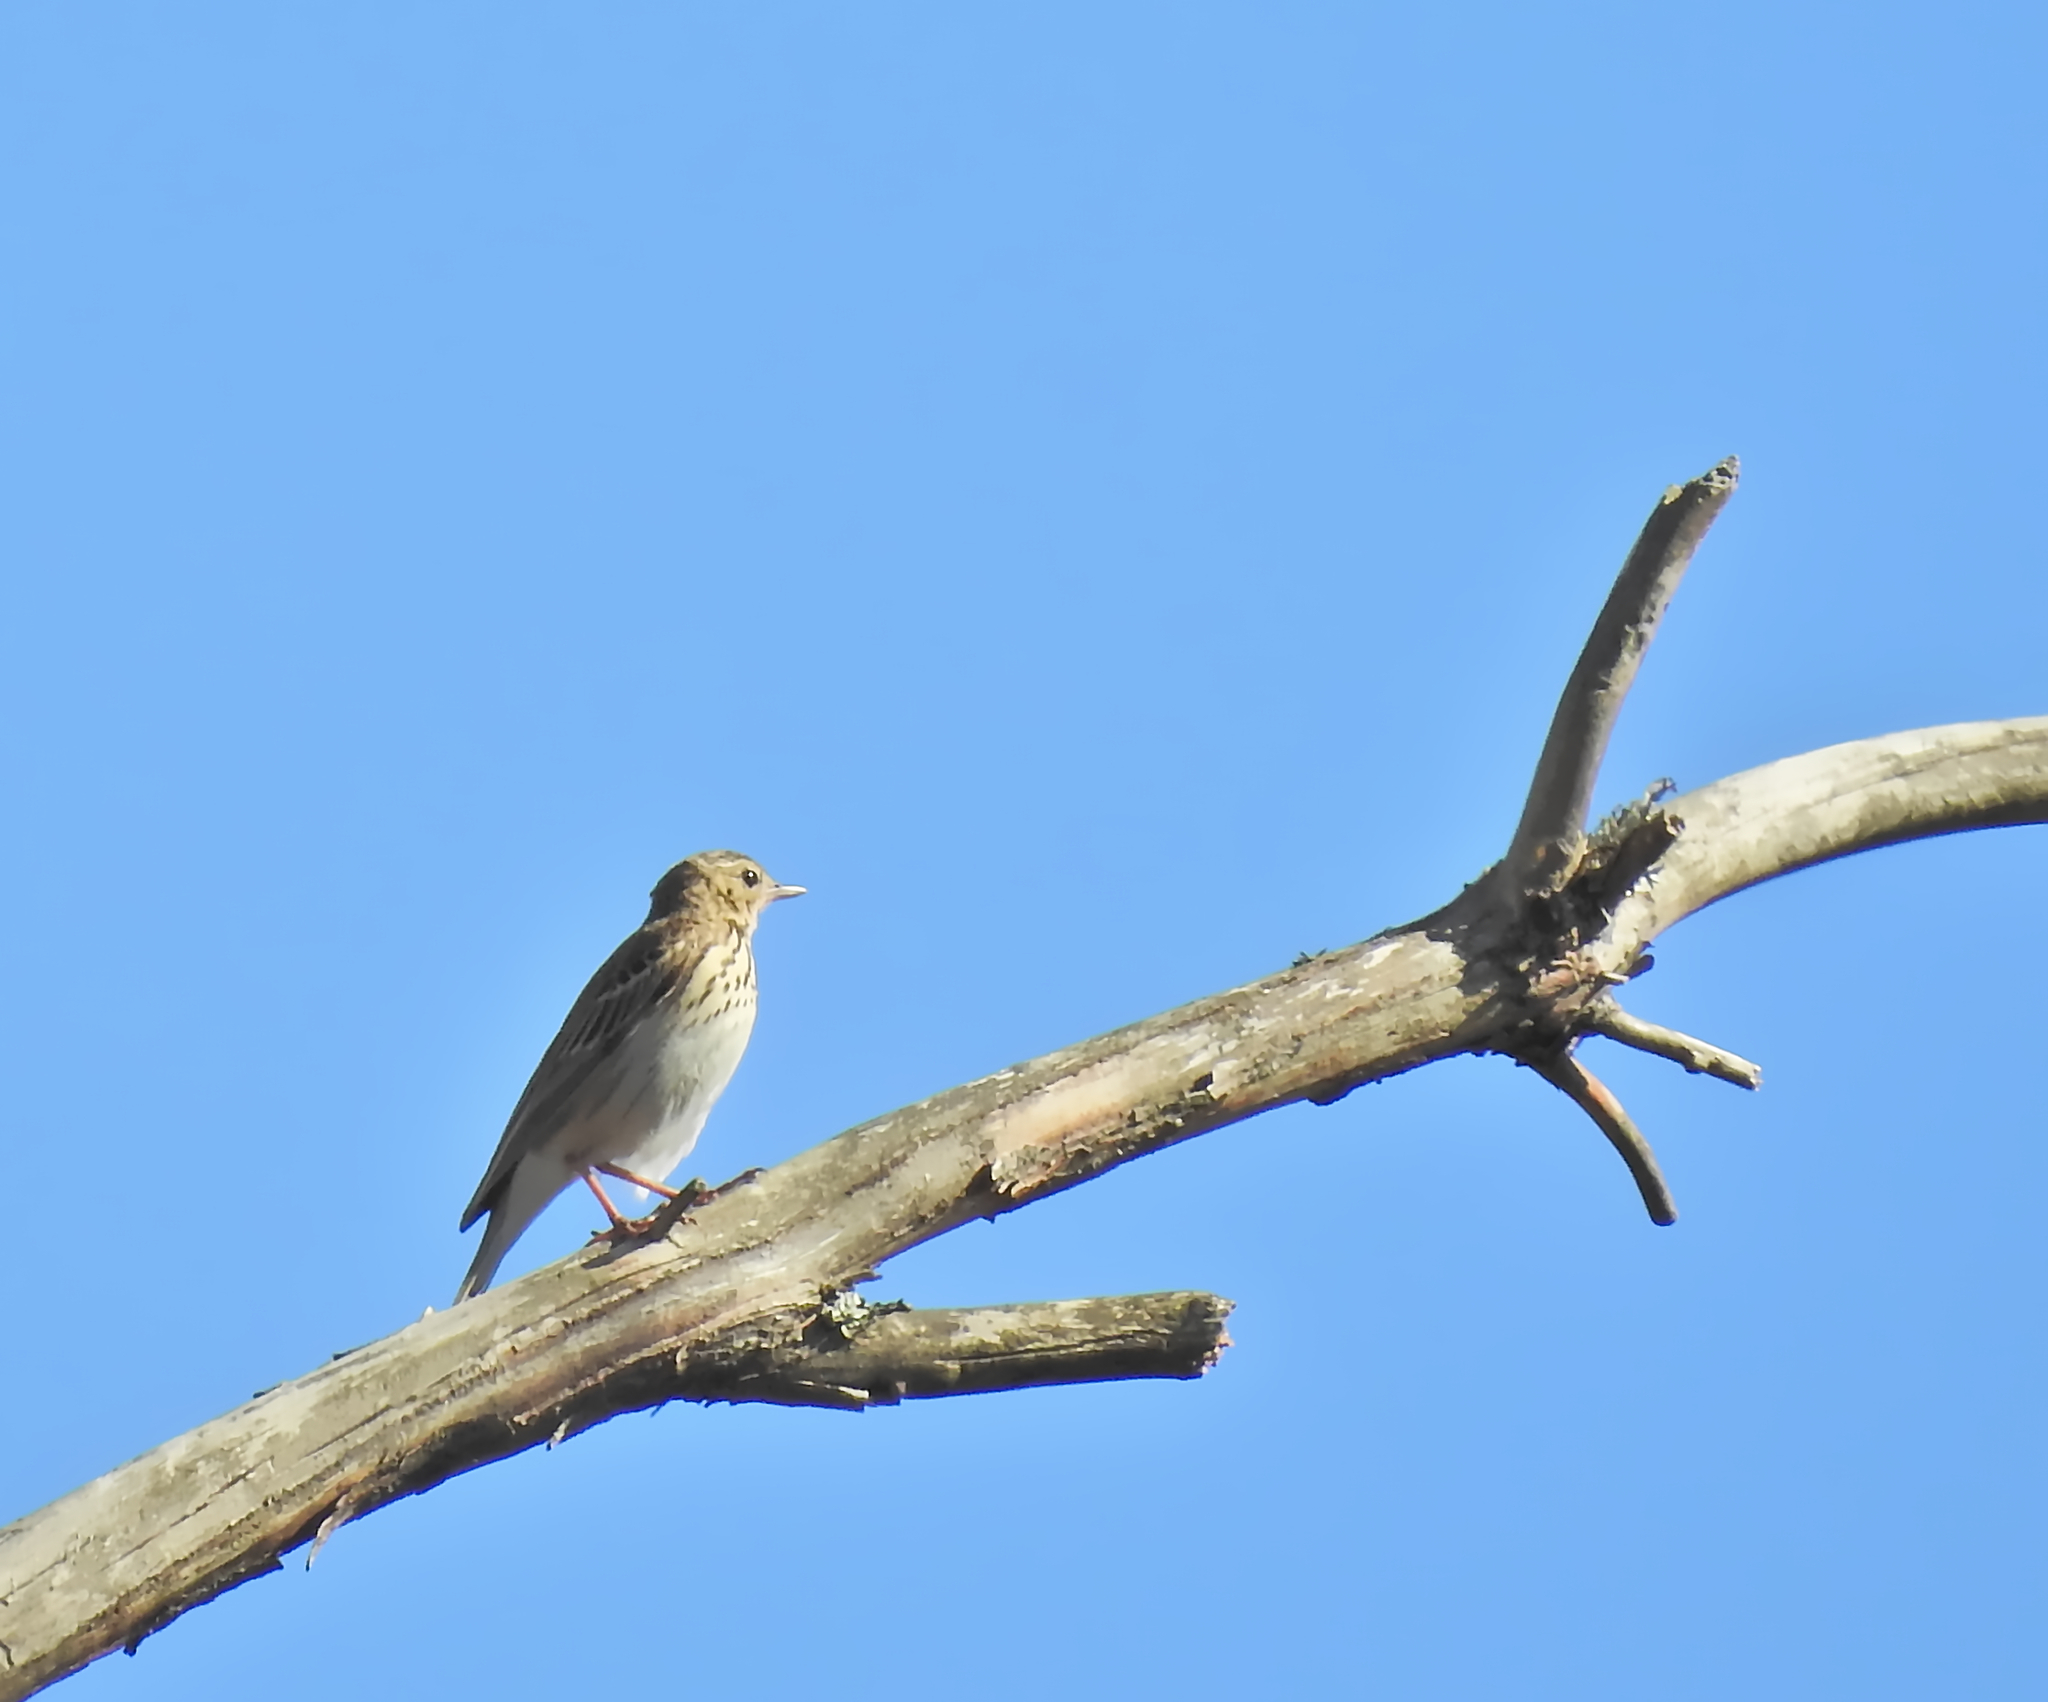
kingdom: Animalia
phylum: Chordata
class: Aves
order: Passeriformes
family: Motacillidae
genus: Anthus
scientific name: Anthus trivialis
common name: Tree pipit
